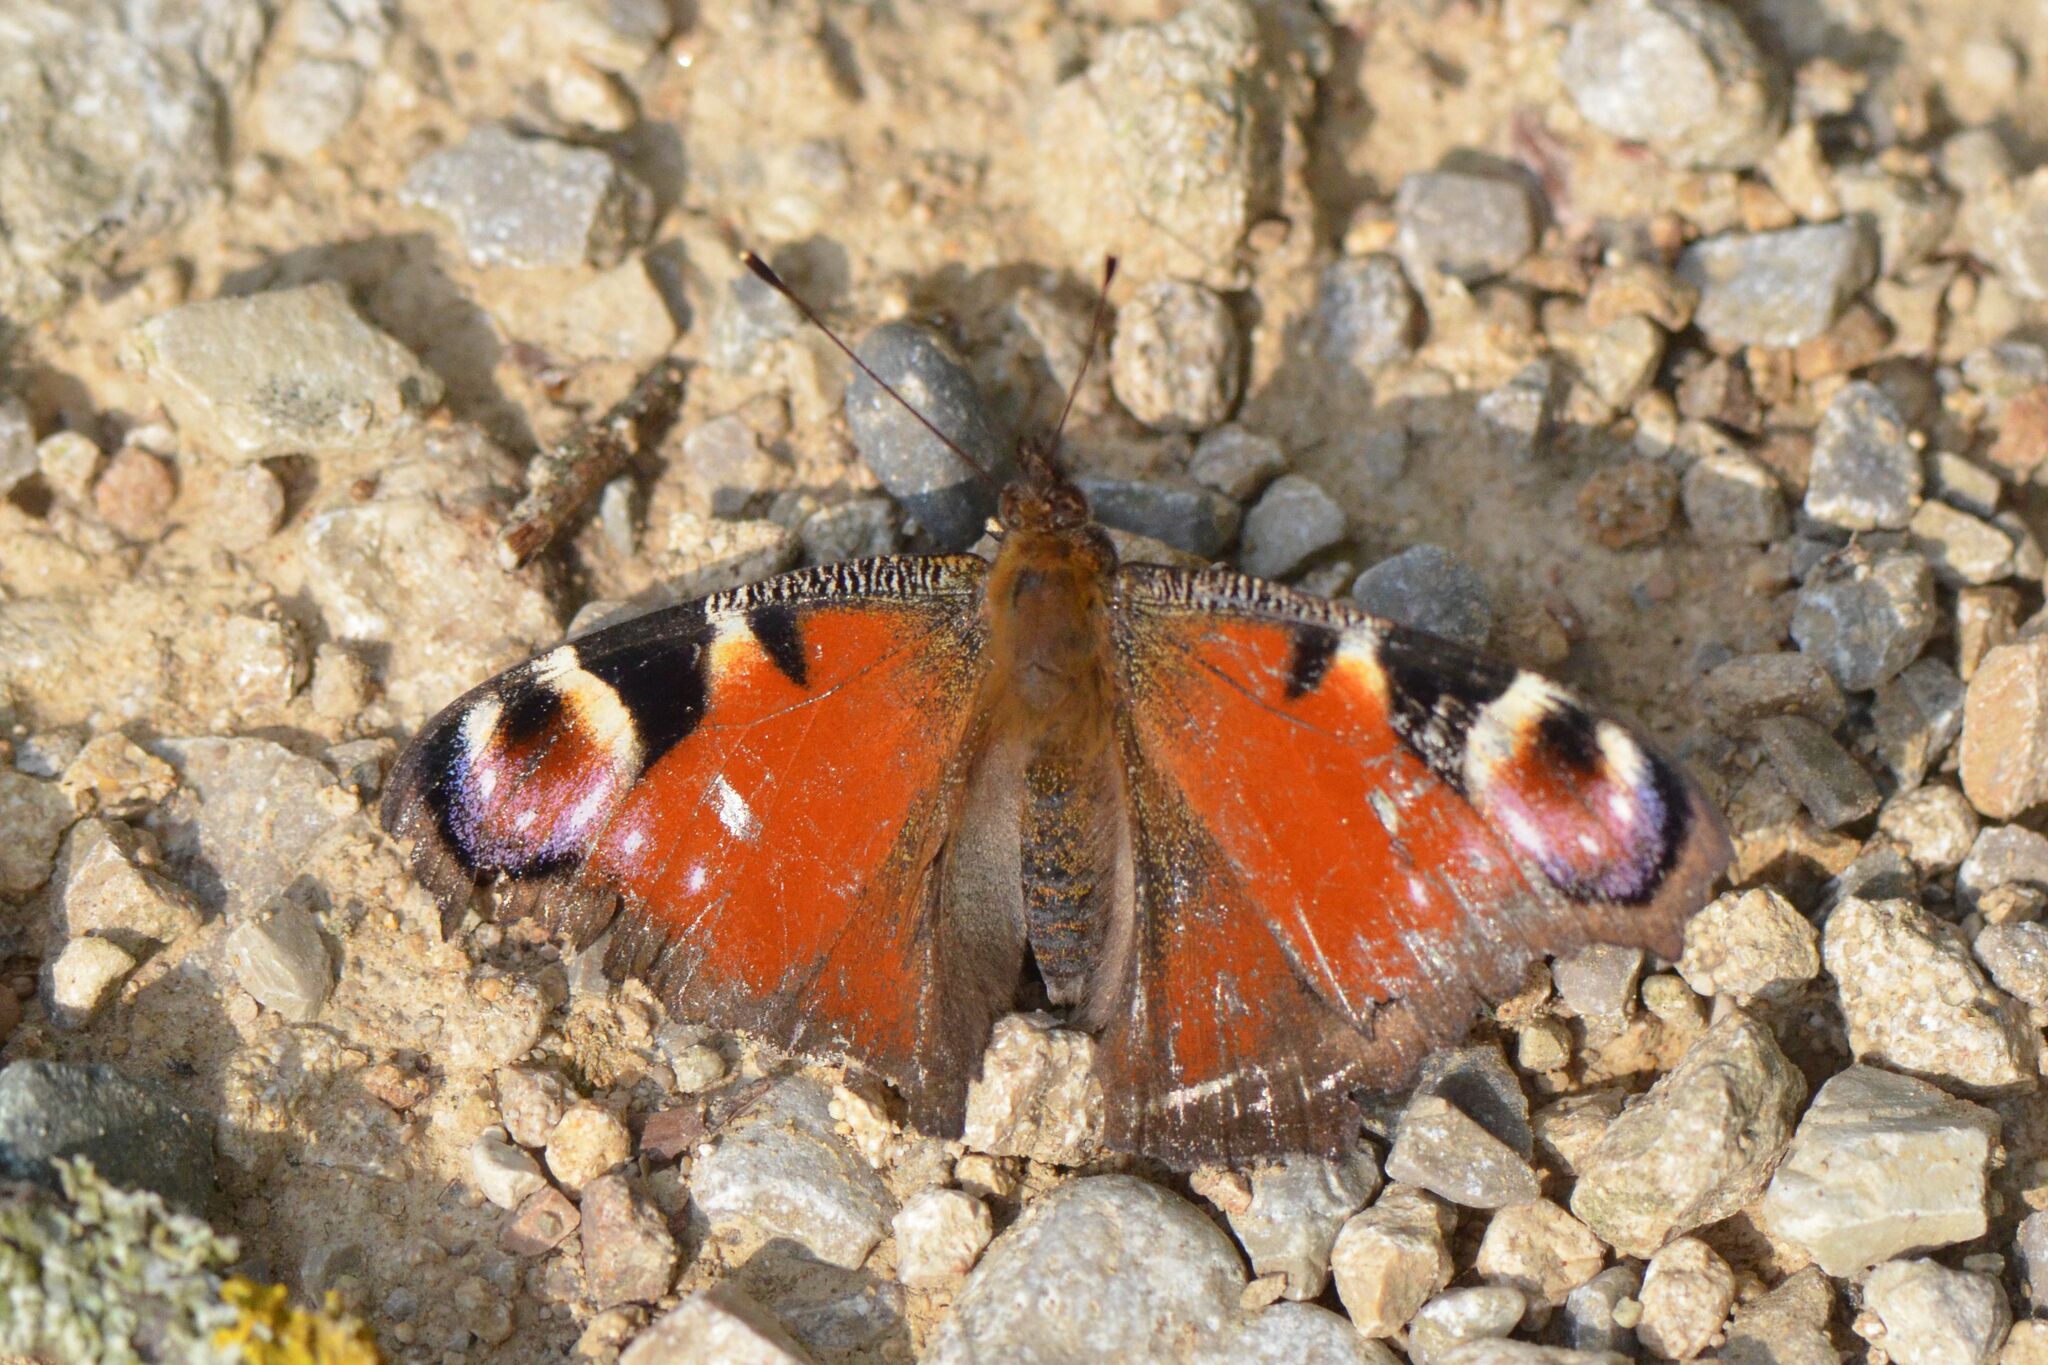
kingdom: Animalia
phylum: Arthropoda
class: Insecta
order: Lepidoptera
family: Nymphalidae
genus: Aglais
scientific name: Aglais io
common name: Peacock
